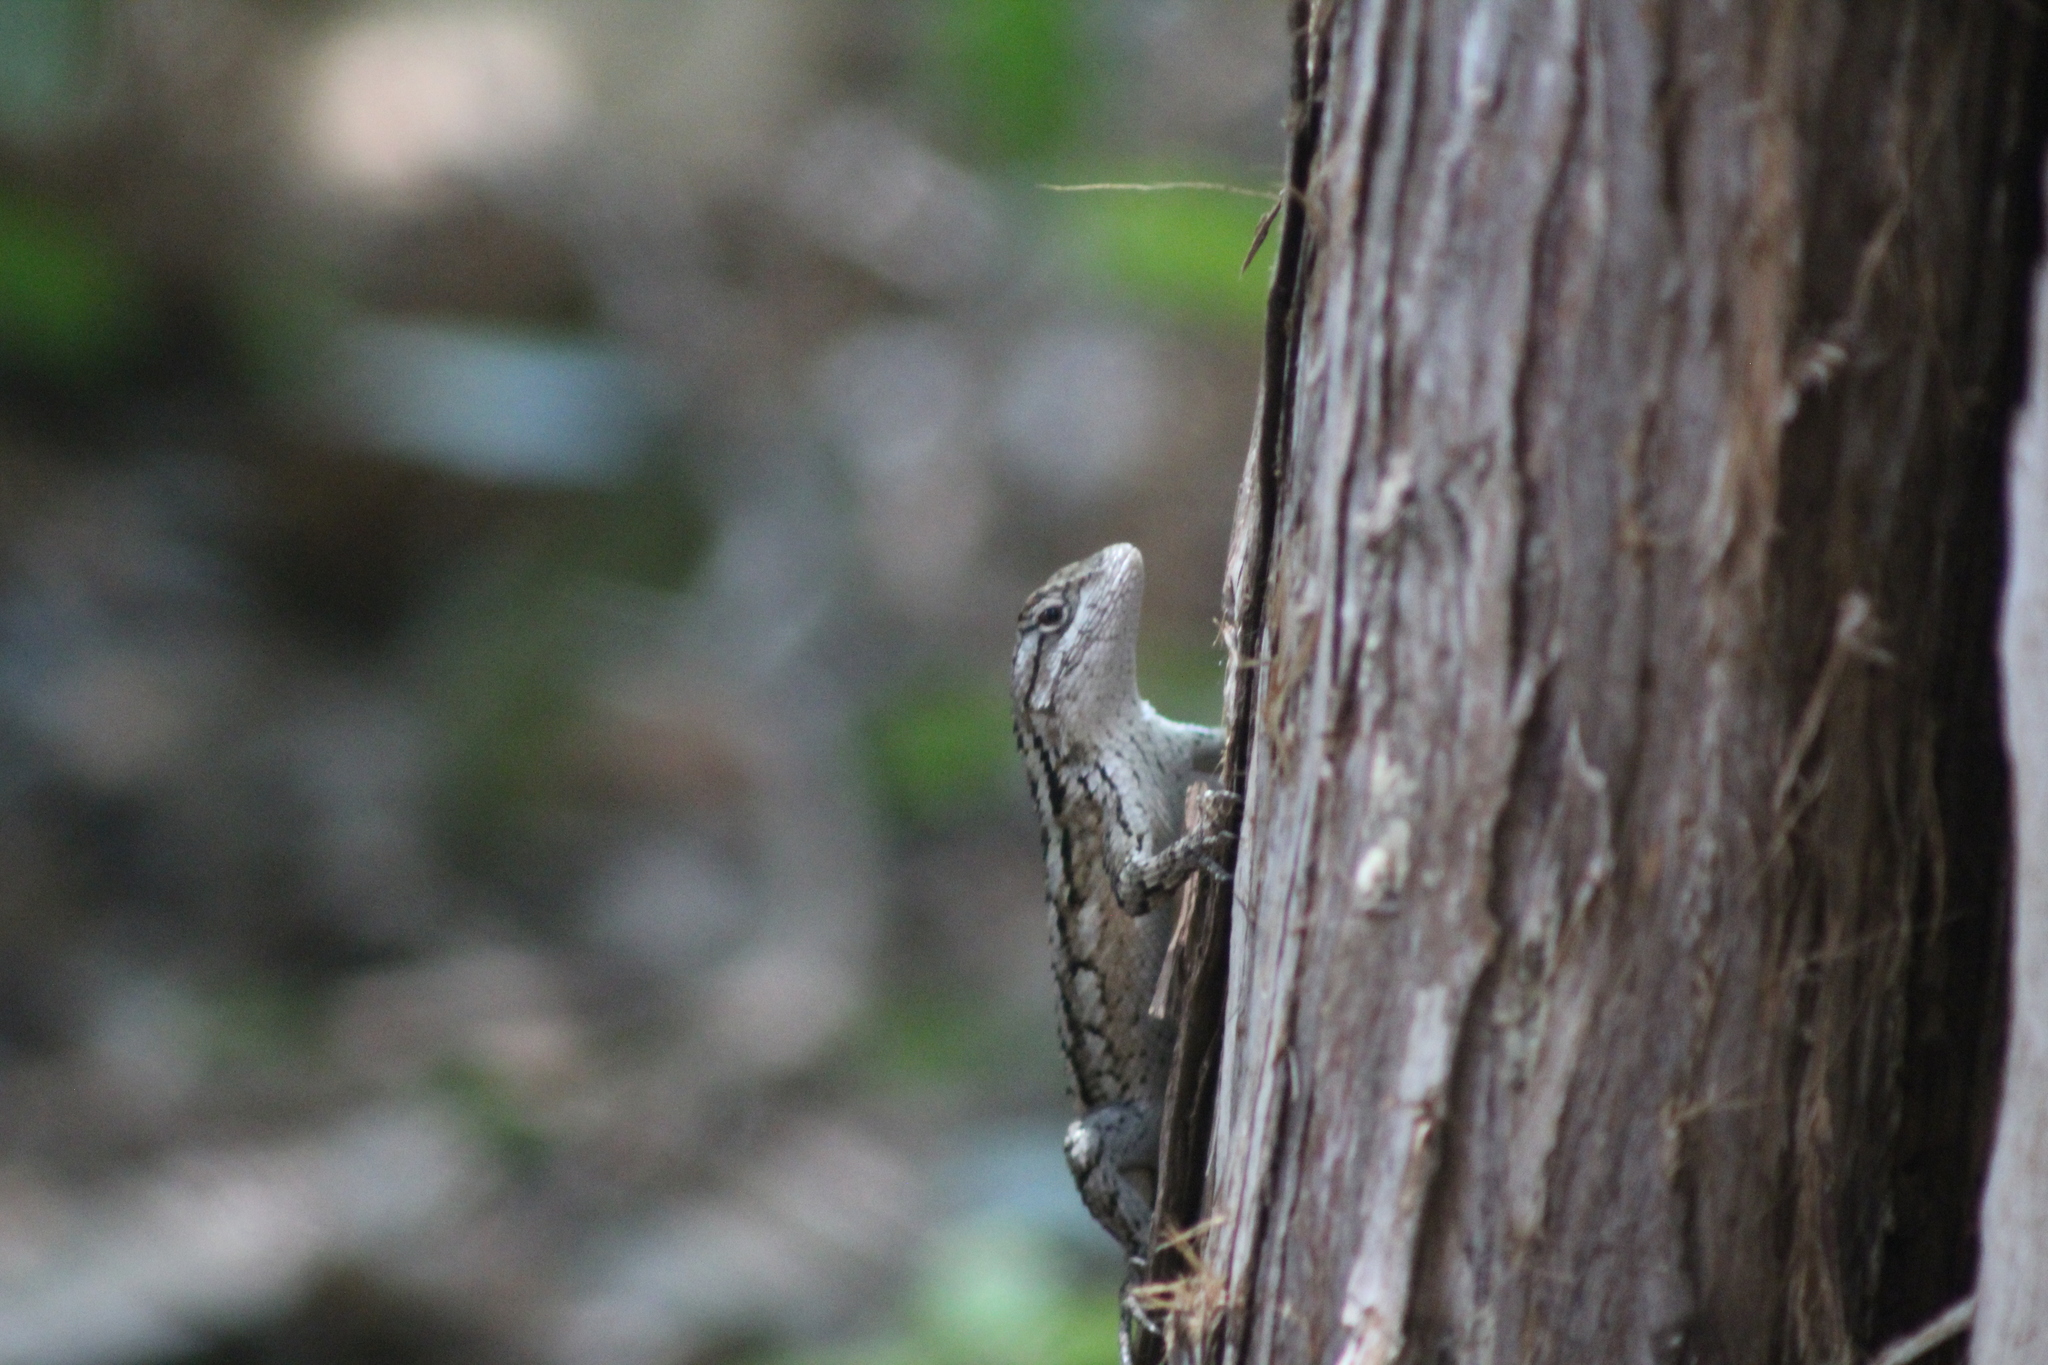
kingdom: Animalia
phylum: Chordata
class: Squamata
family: Phrynosomatidae
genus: Sceloporus
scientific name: Sceloporus olivaceus
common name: Texas spiny lizard
